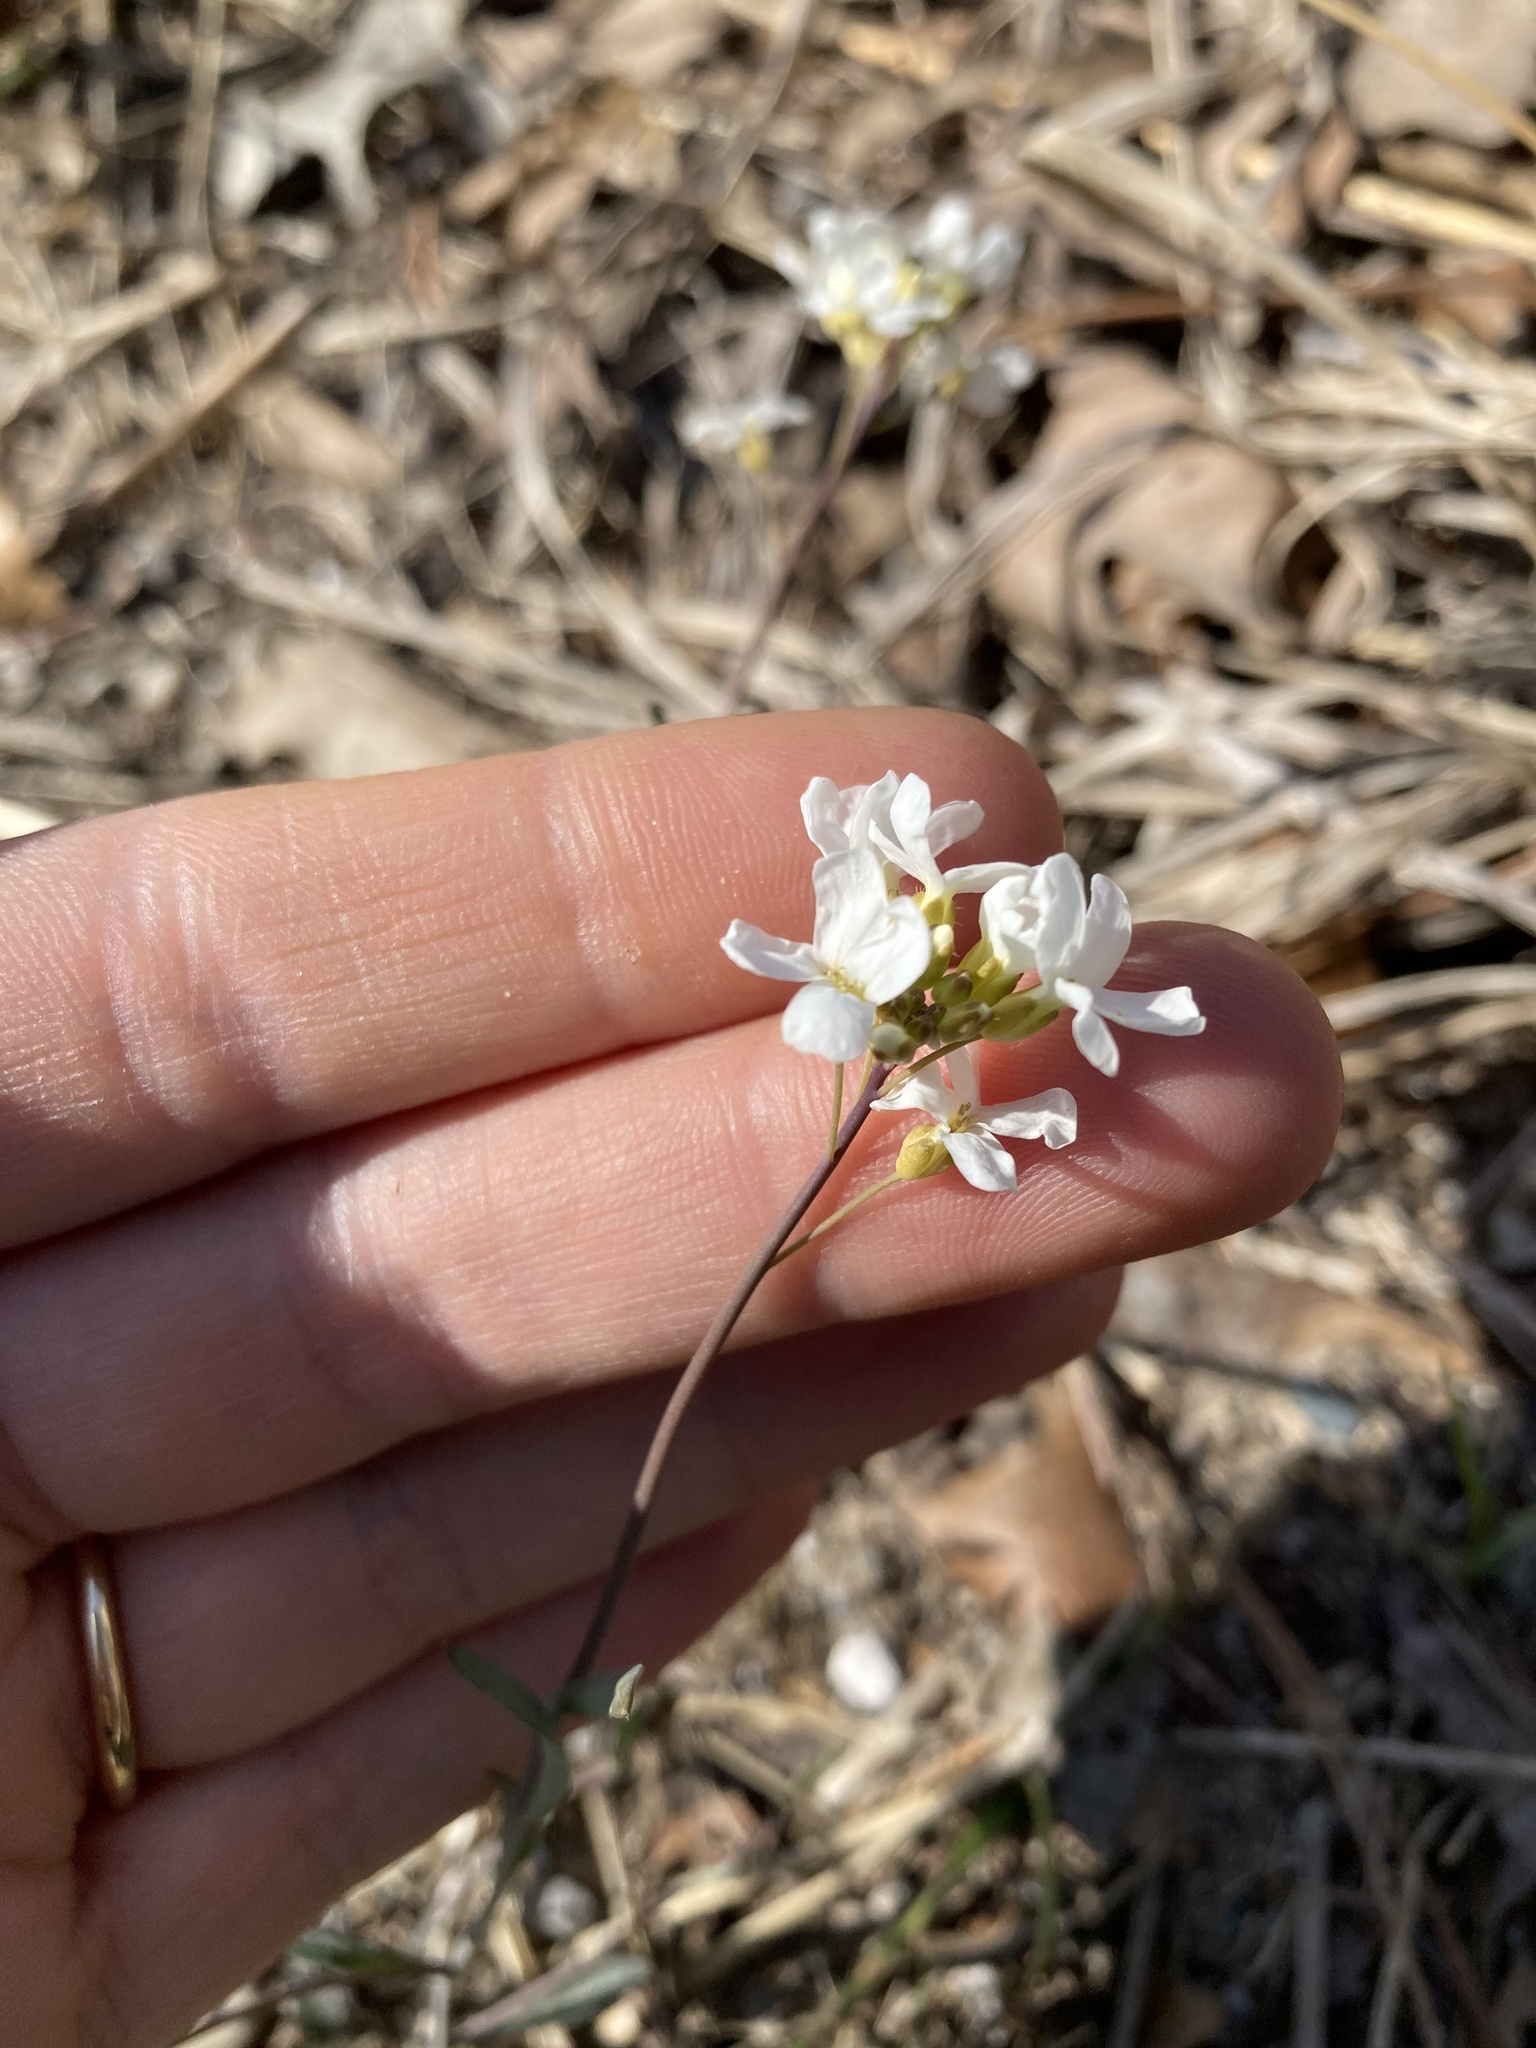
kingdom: Plantae
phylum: Tracheophyta
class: Magnoliopsida
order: Brassicales
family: Brassicaceae
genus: Arabidopsis
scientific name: Arabidopsis lyrata
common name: Lyrate rockcress
